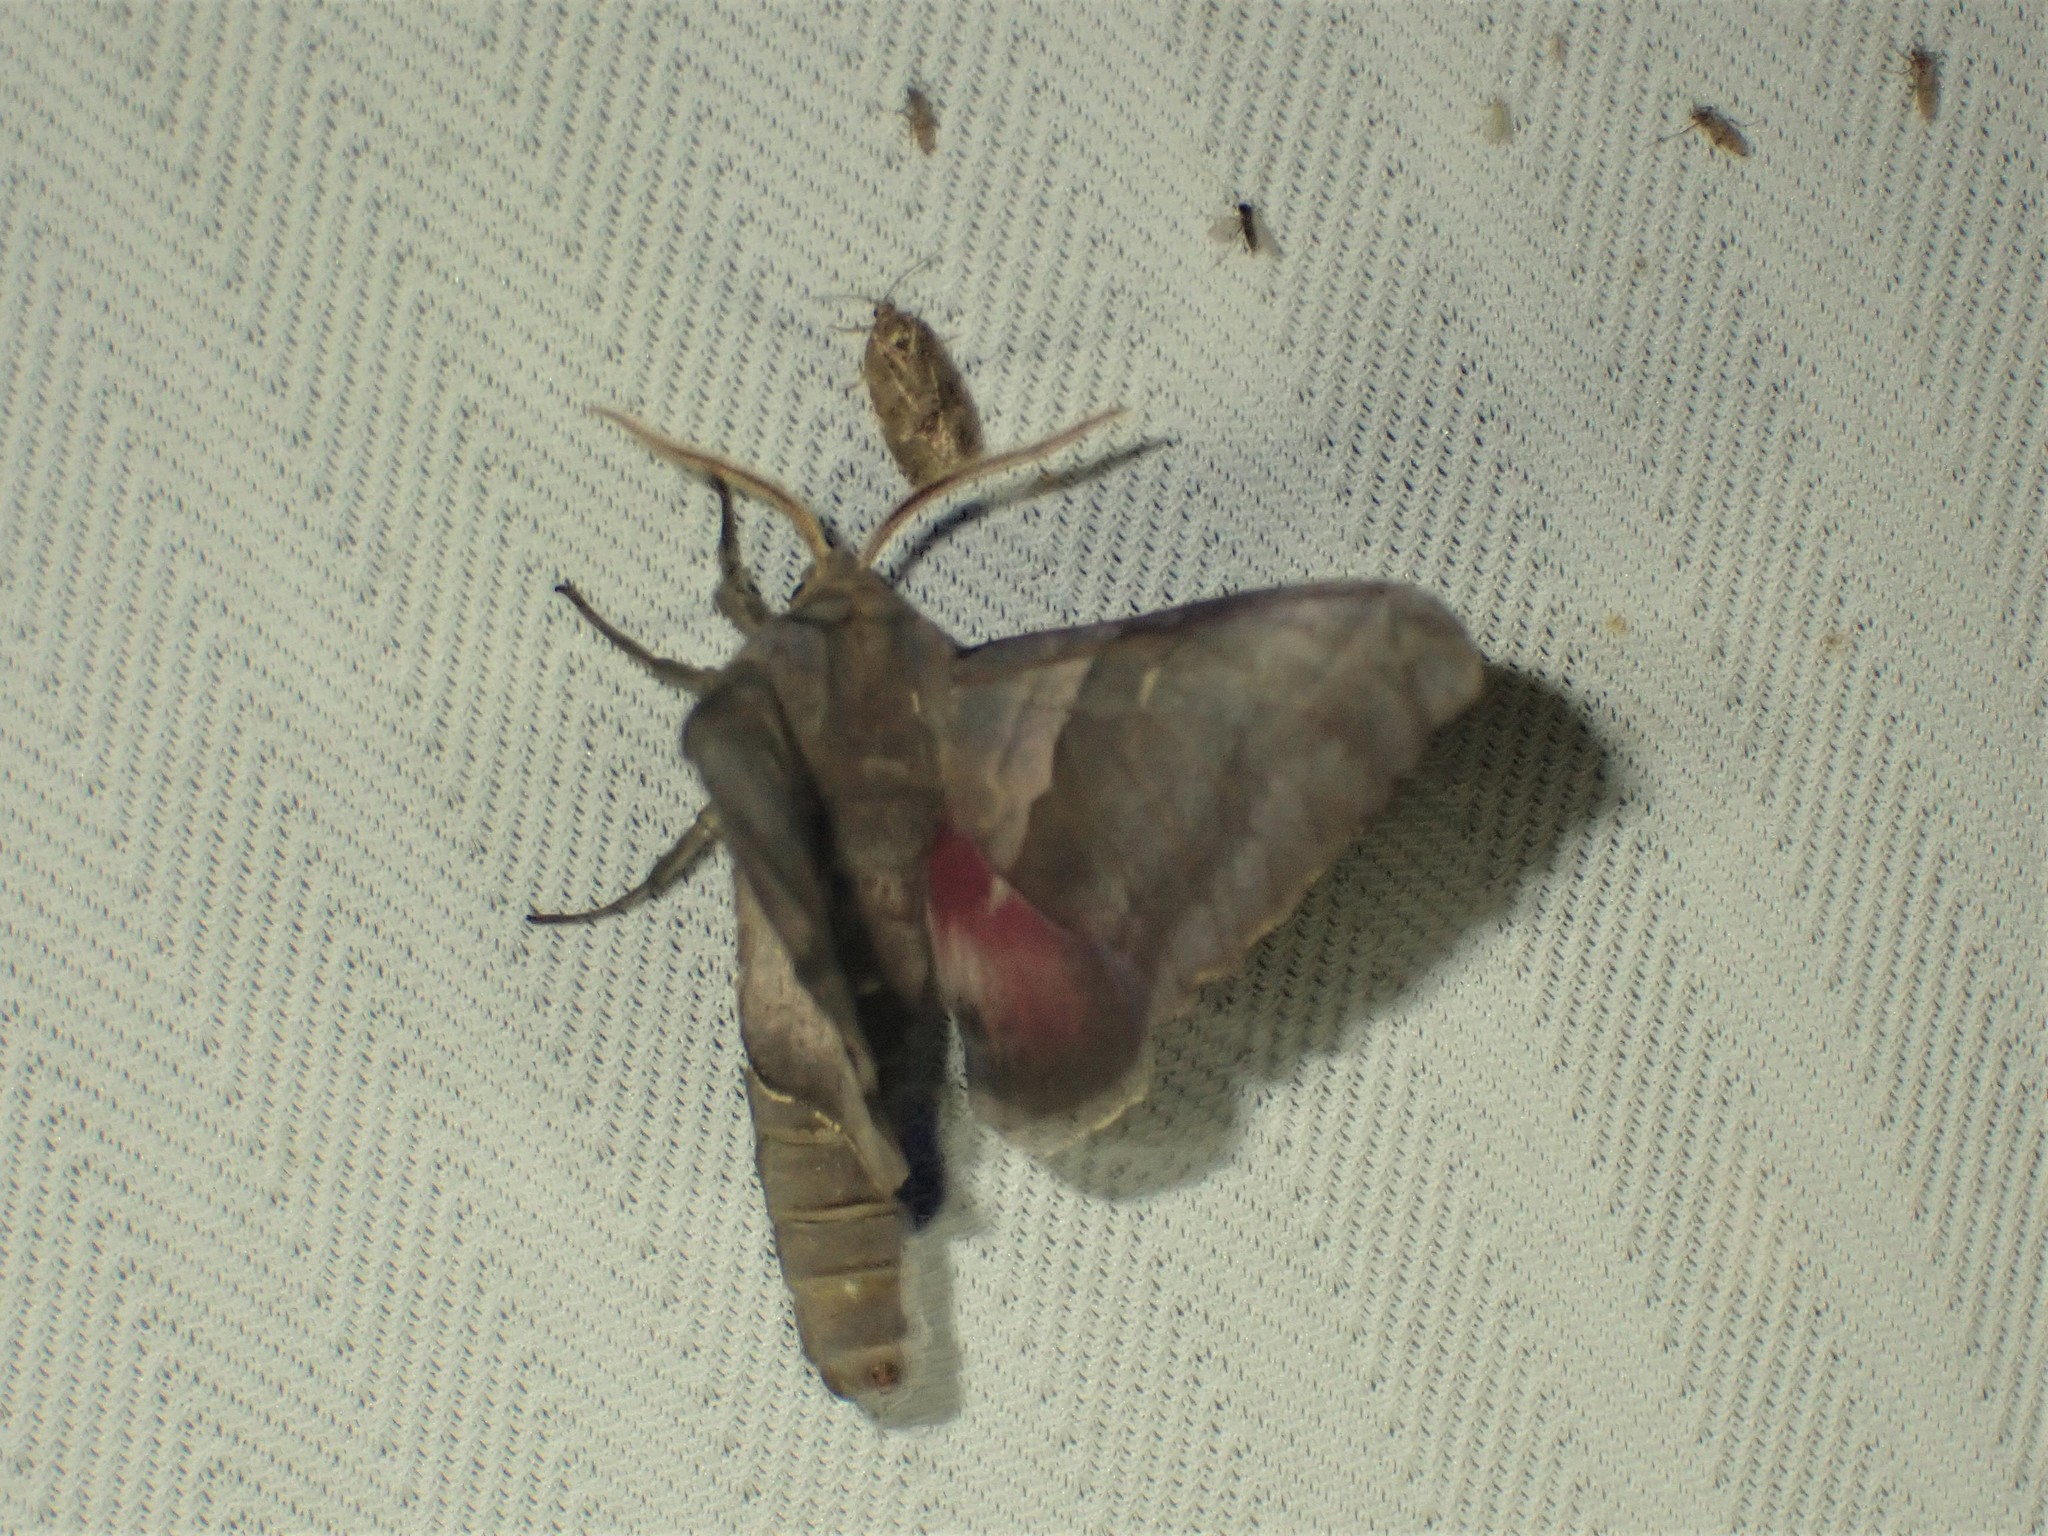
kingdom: Animalia
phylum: Arthropoda
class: Insecta
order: Lepidoptera
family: Sphingidae
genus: Pachysphinx
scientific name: Pachysphinx modesta
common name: Big poplar sphinx
